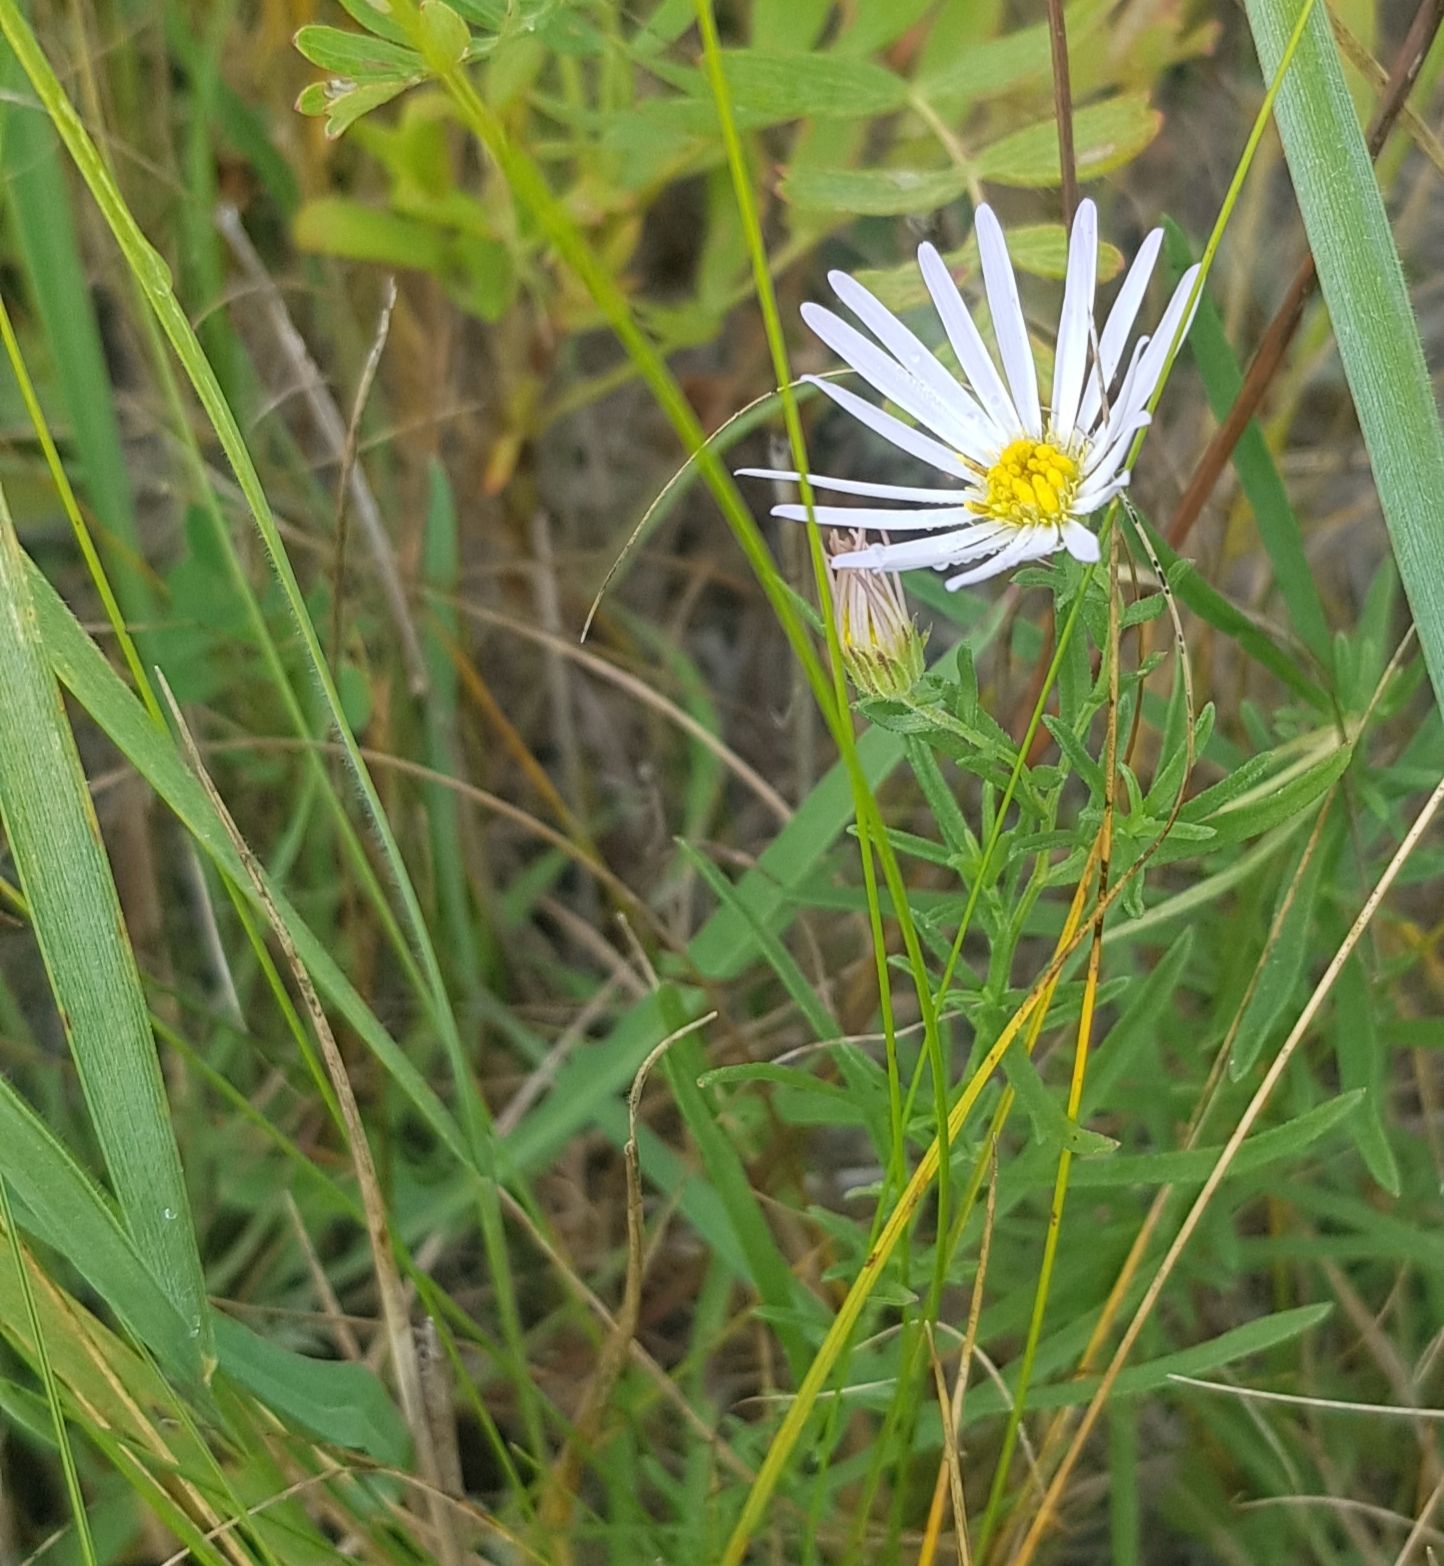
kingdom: Plantae
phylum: Tracheophyta
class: Magnoliopsida
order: Asterales
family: Asteraceae
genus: Aster
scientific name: Aster biennis
